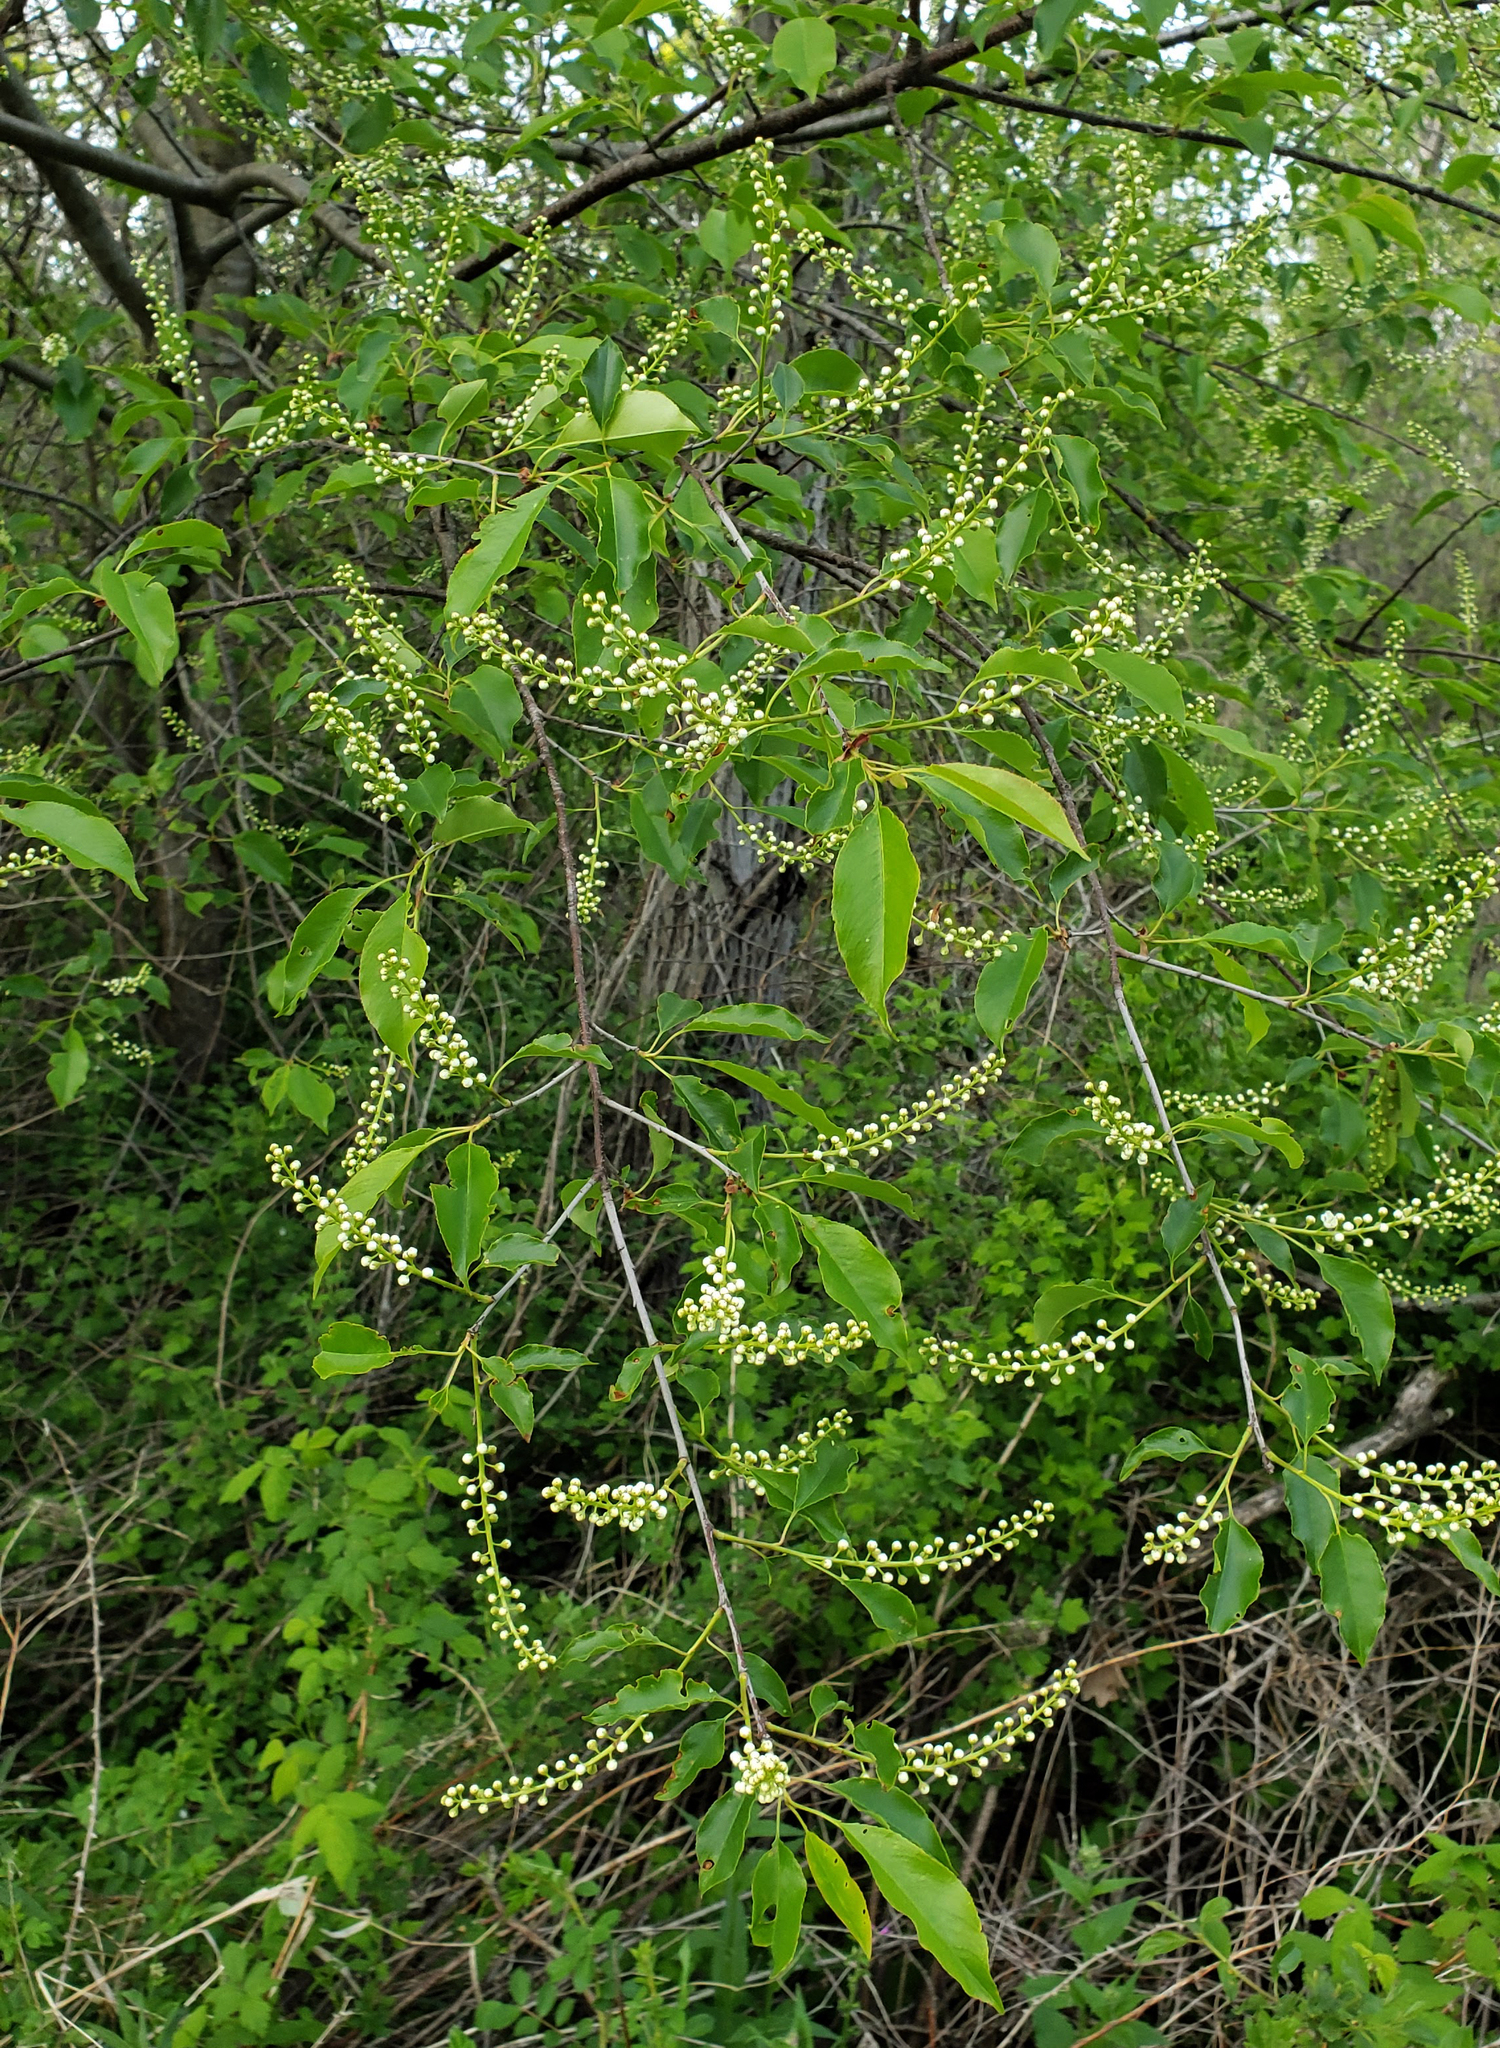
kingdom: Plantae
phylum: Tracheophyta
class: Magnoliopsida
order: Rosales
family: Rosaceae
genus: Prunus
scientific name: Prunus serotina
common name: Black cherry
